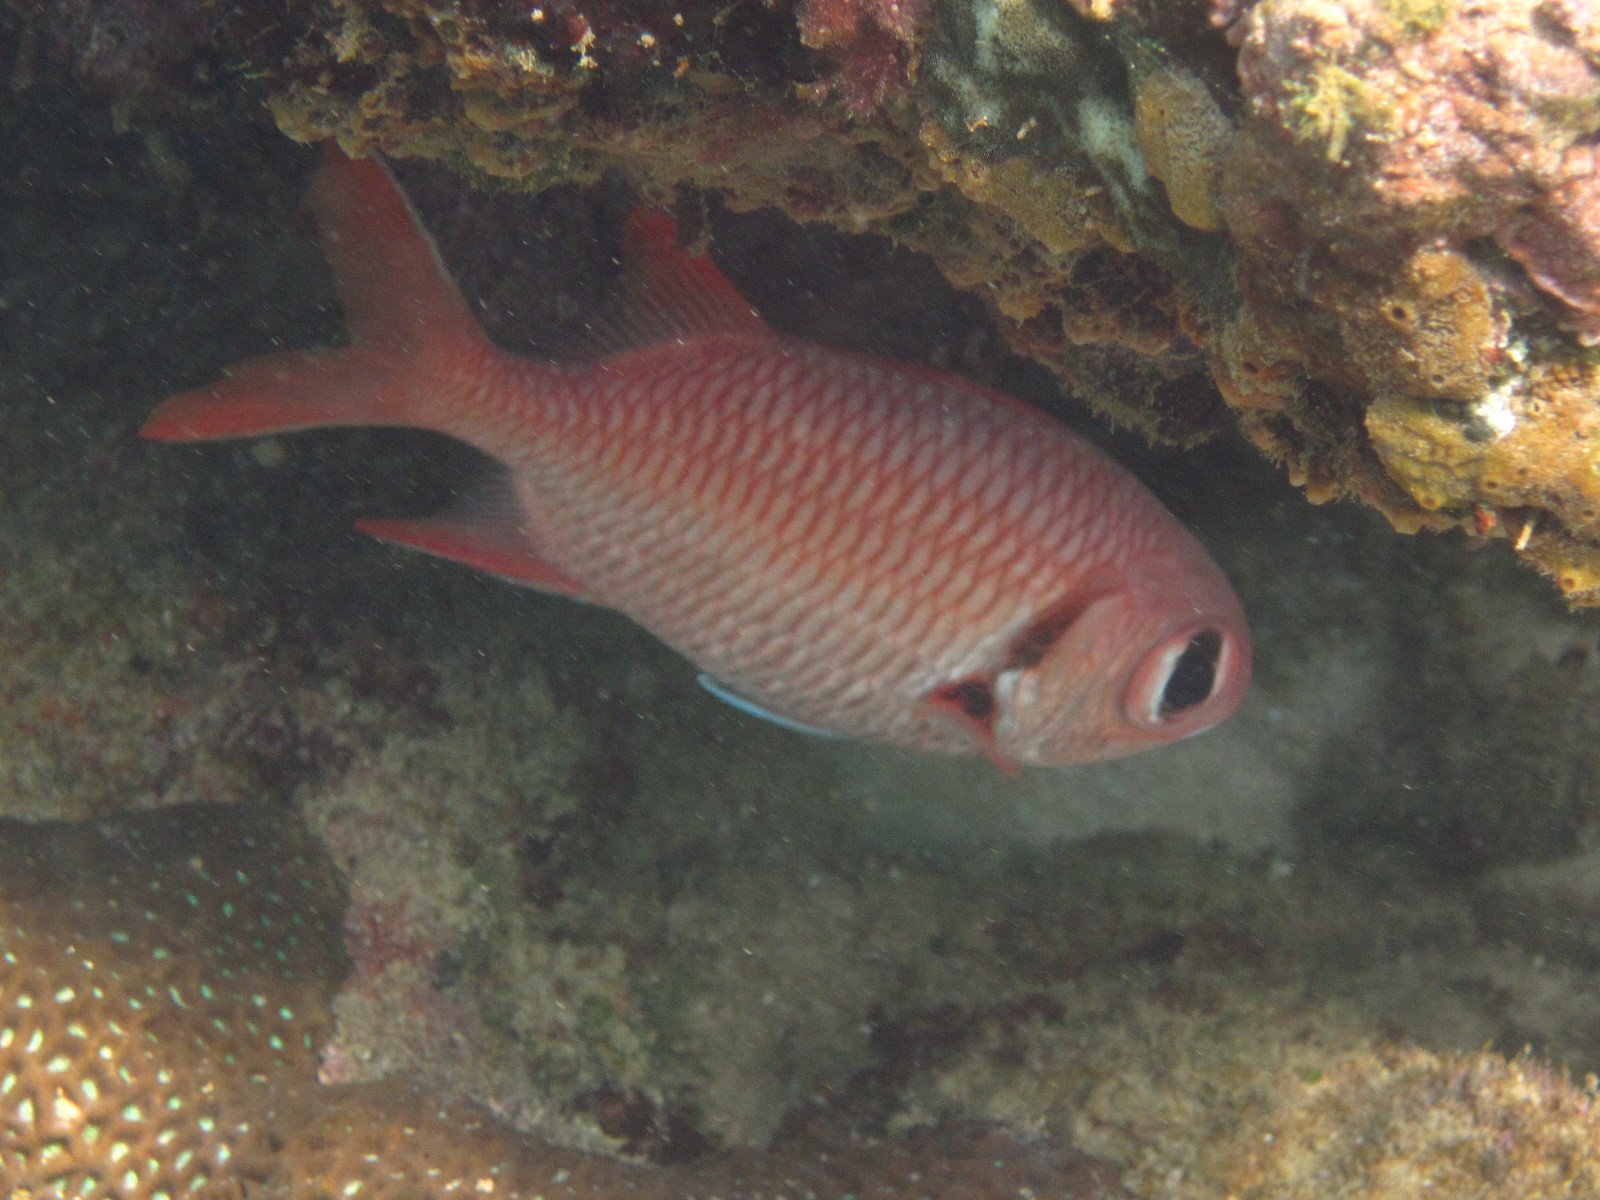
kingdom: Animalia
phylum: Chordata
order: Beryciformes
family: Holocentridae
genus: Myripristis
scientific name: Myripristis murdjan
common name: Big-eye soldierfish
